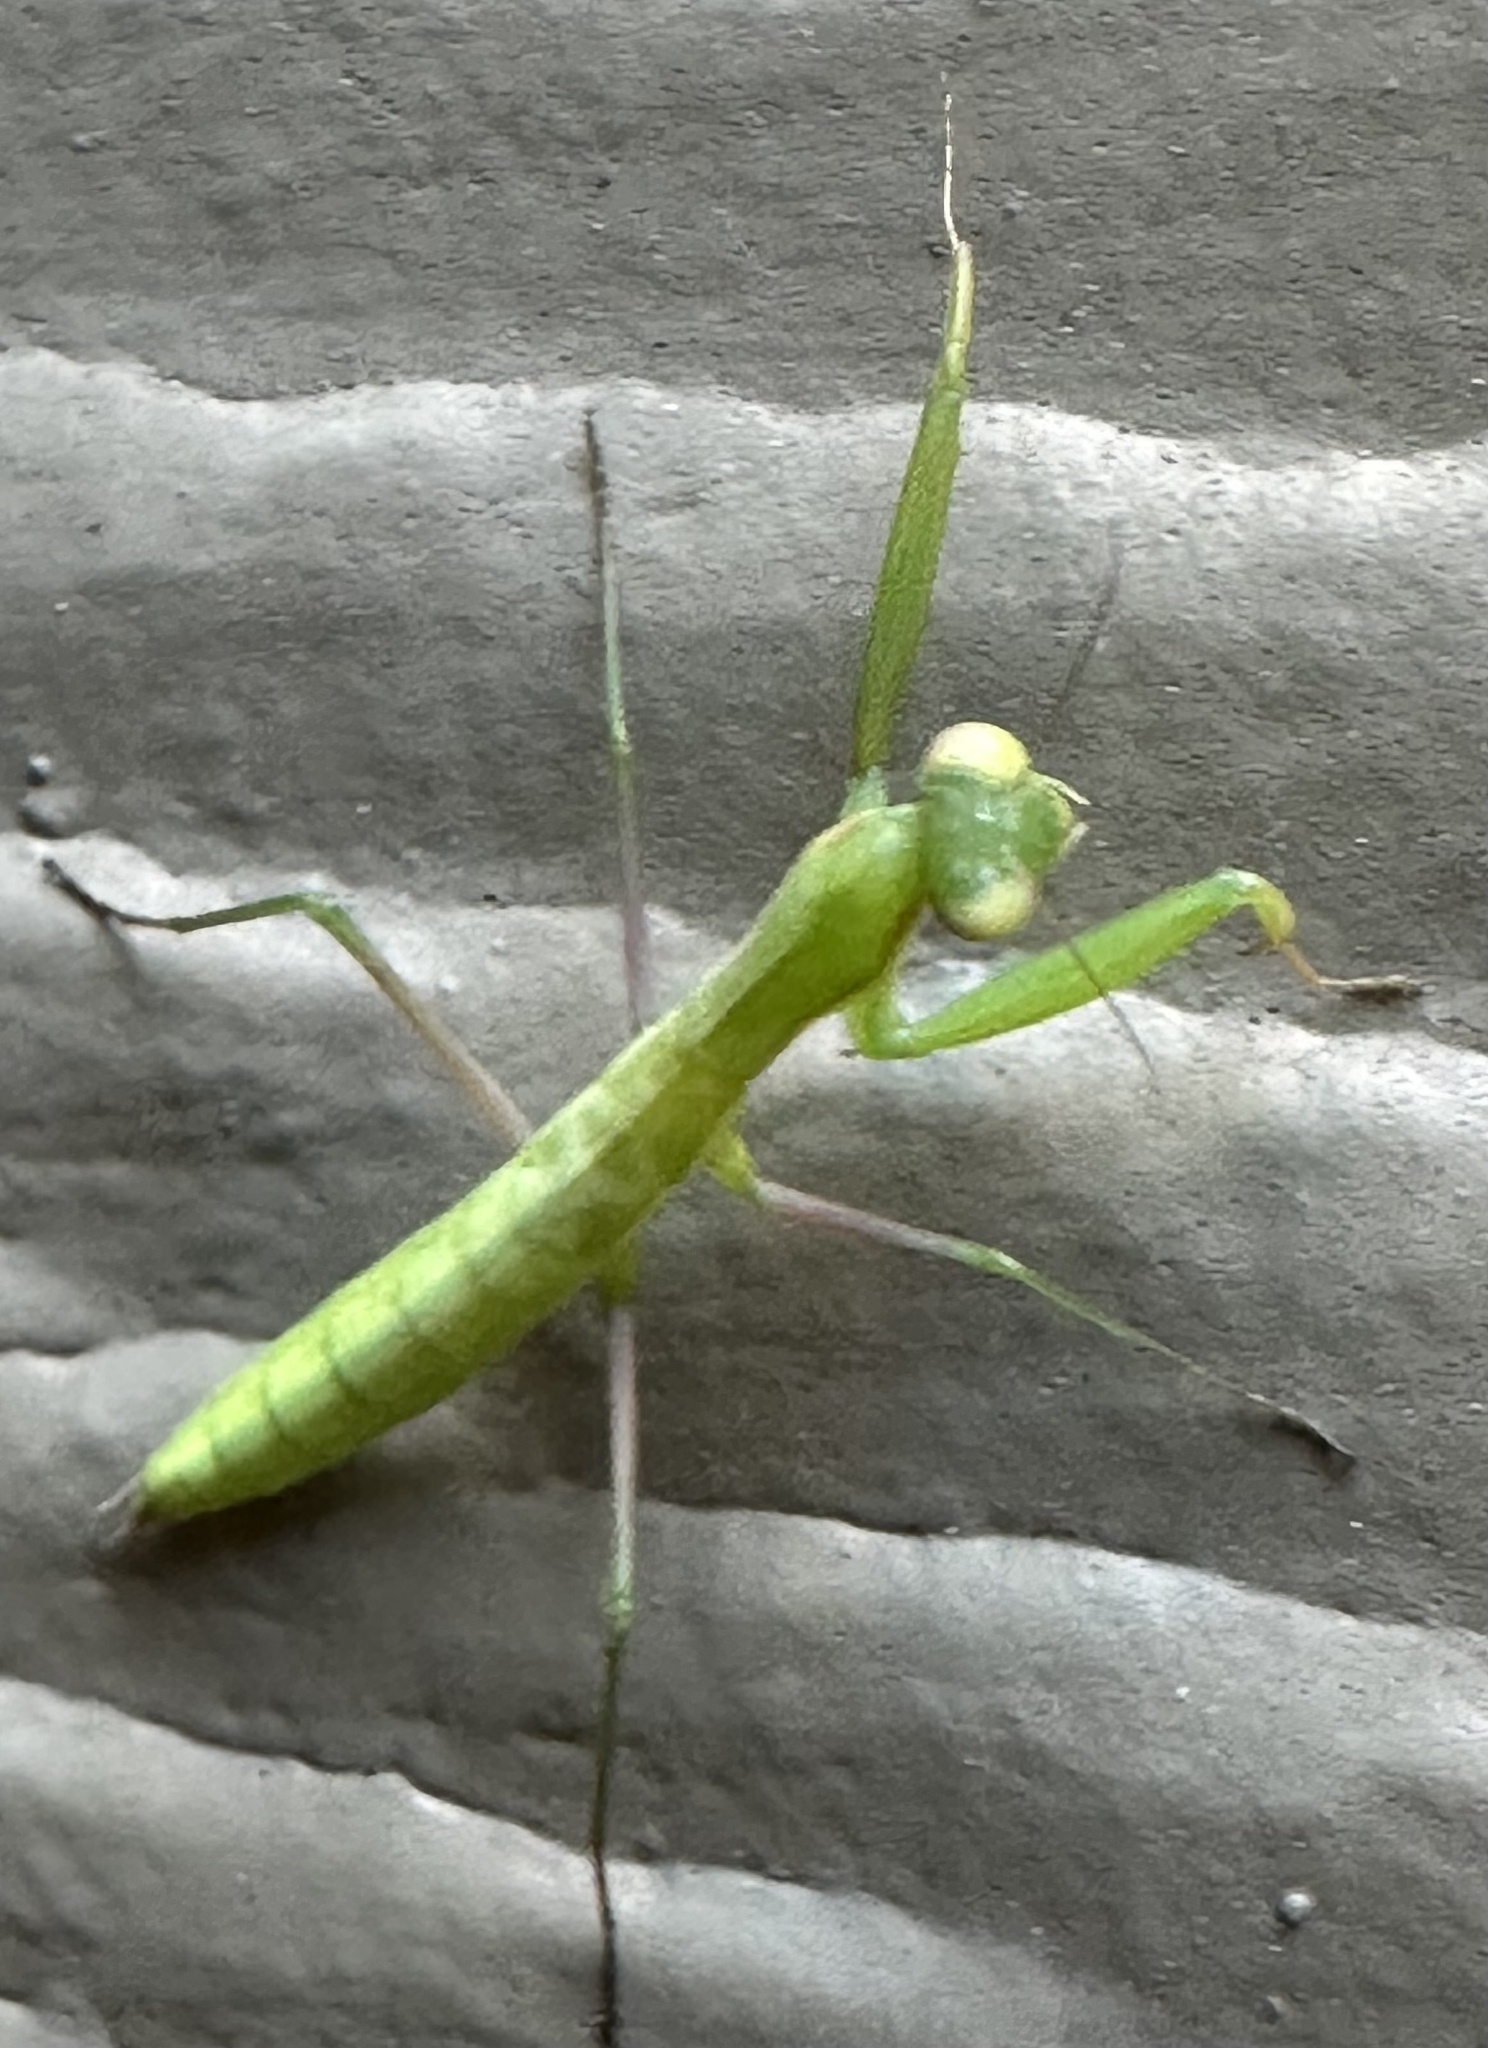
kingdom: Animalia
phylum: Arthropoda
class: Insecta
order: Mantodea
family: Mantidae
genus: Mantis
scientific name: Mantis religiosa
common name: Praying mantis
